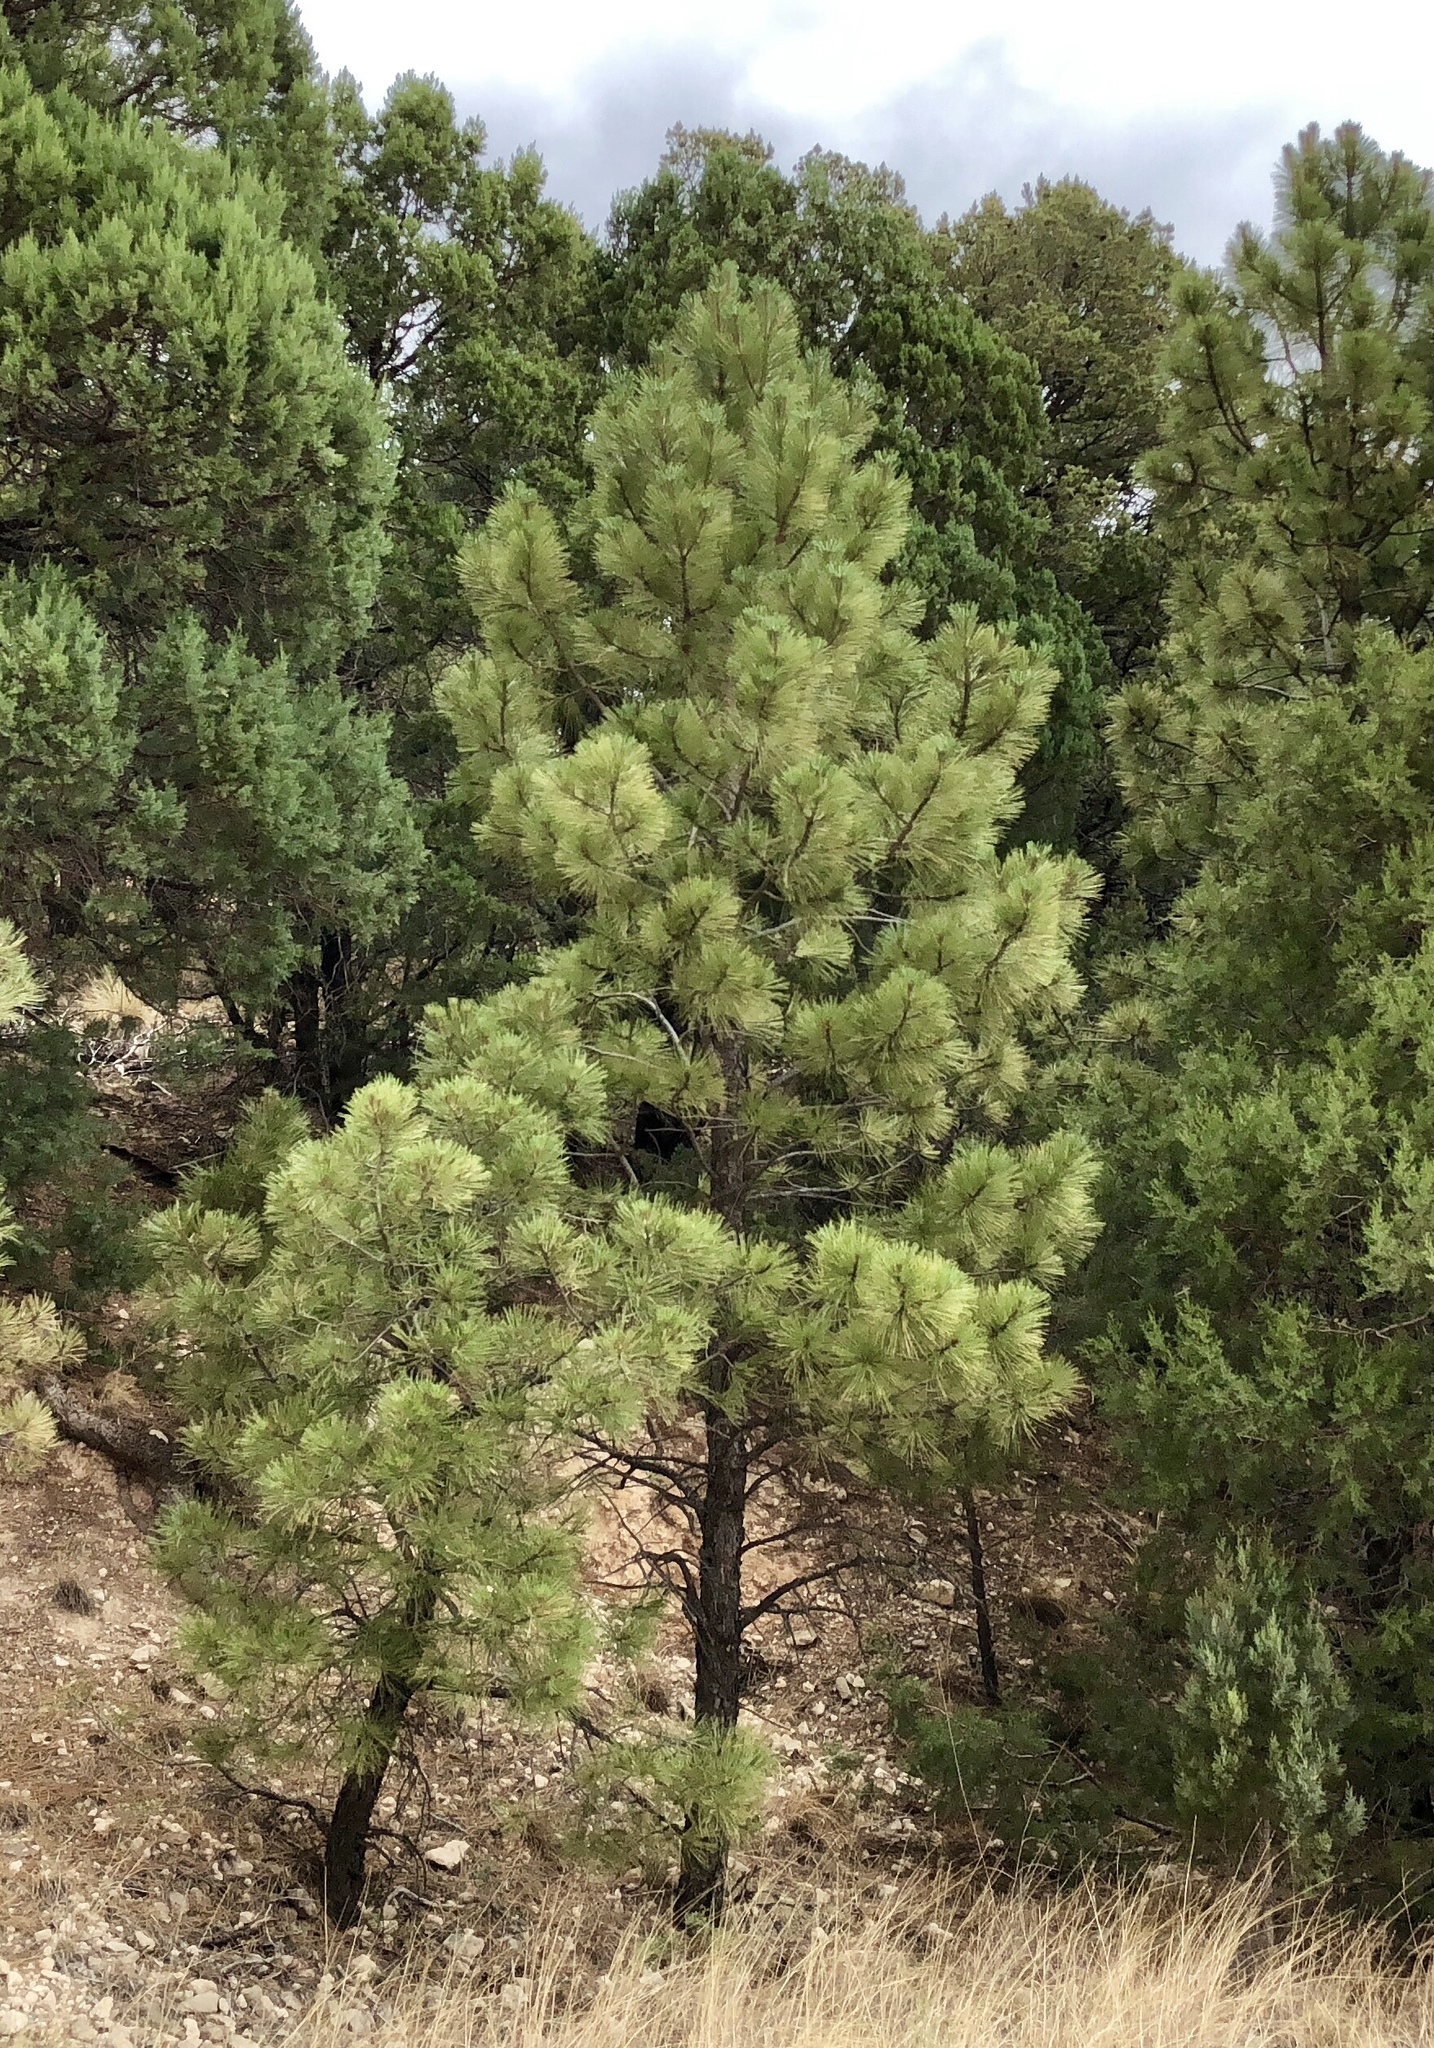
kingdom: Plantae
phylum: Tracheophyta
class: Pinopsida
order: Pinales
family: Pinaceae
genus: Pinus
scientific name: Pinus ponderosa
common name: Western yellow-pine
